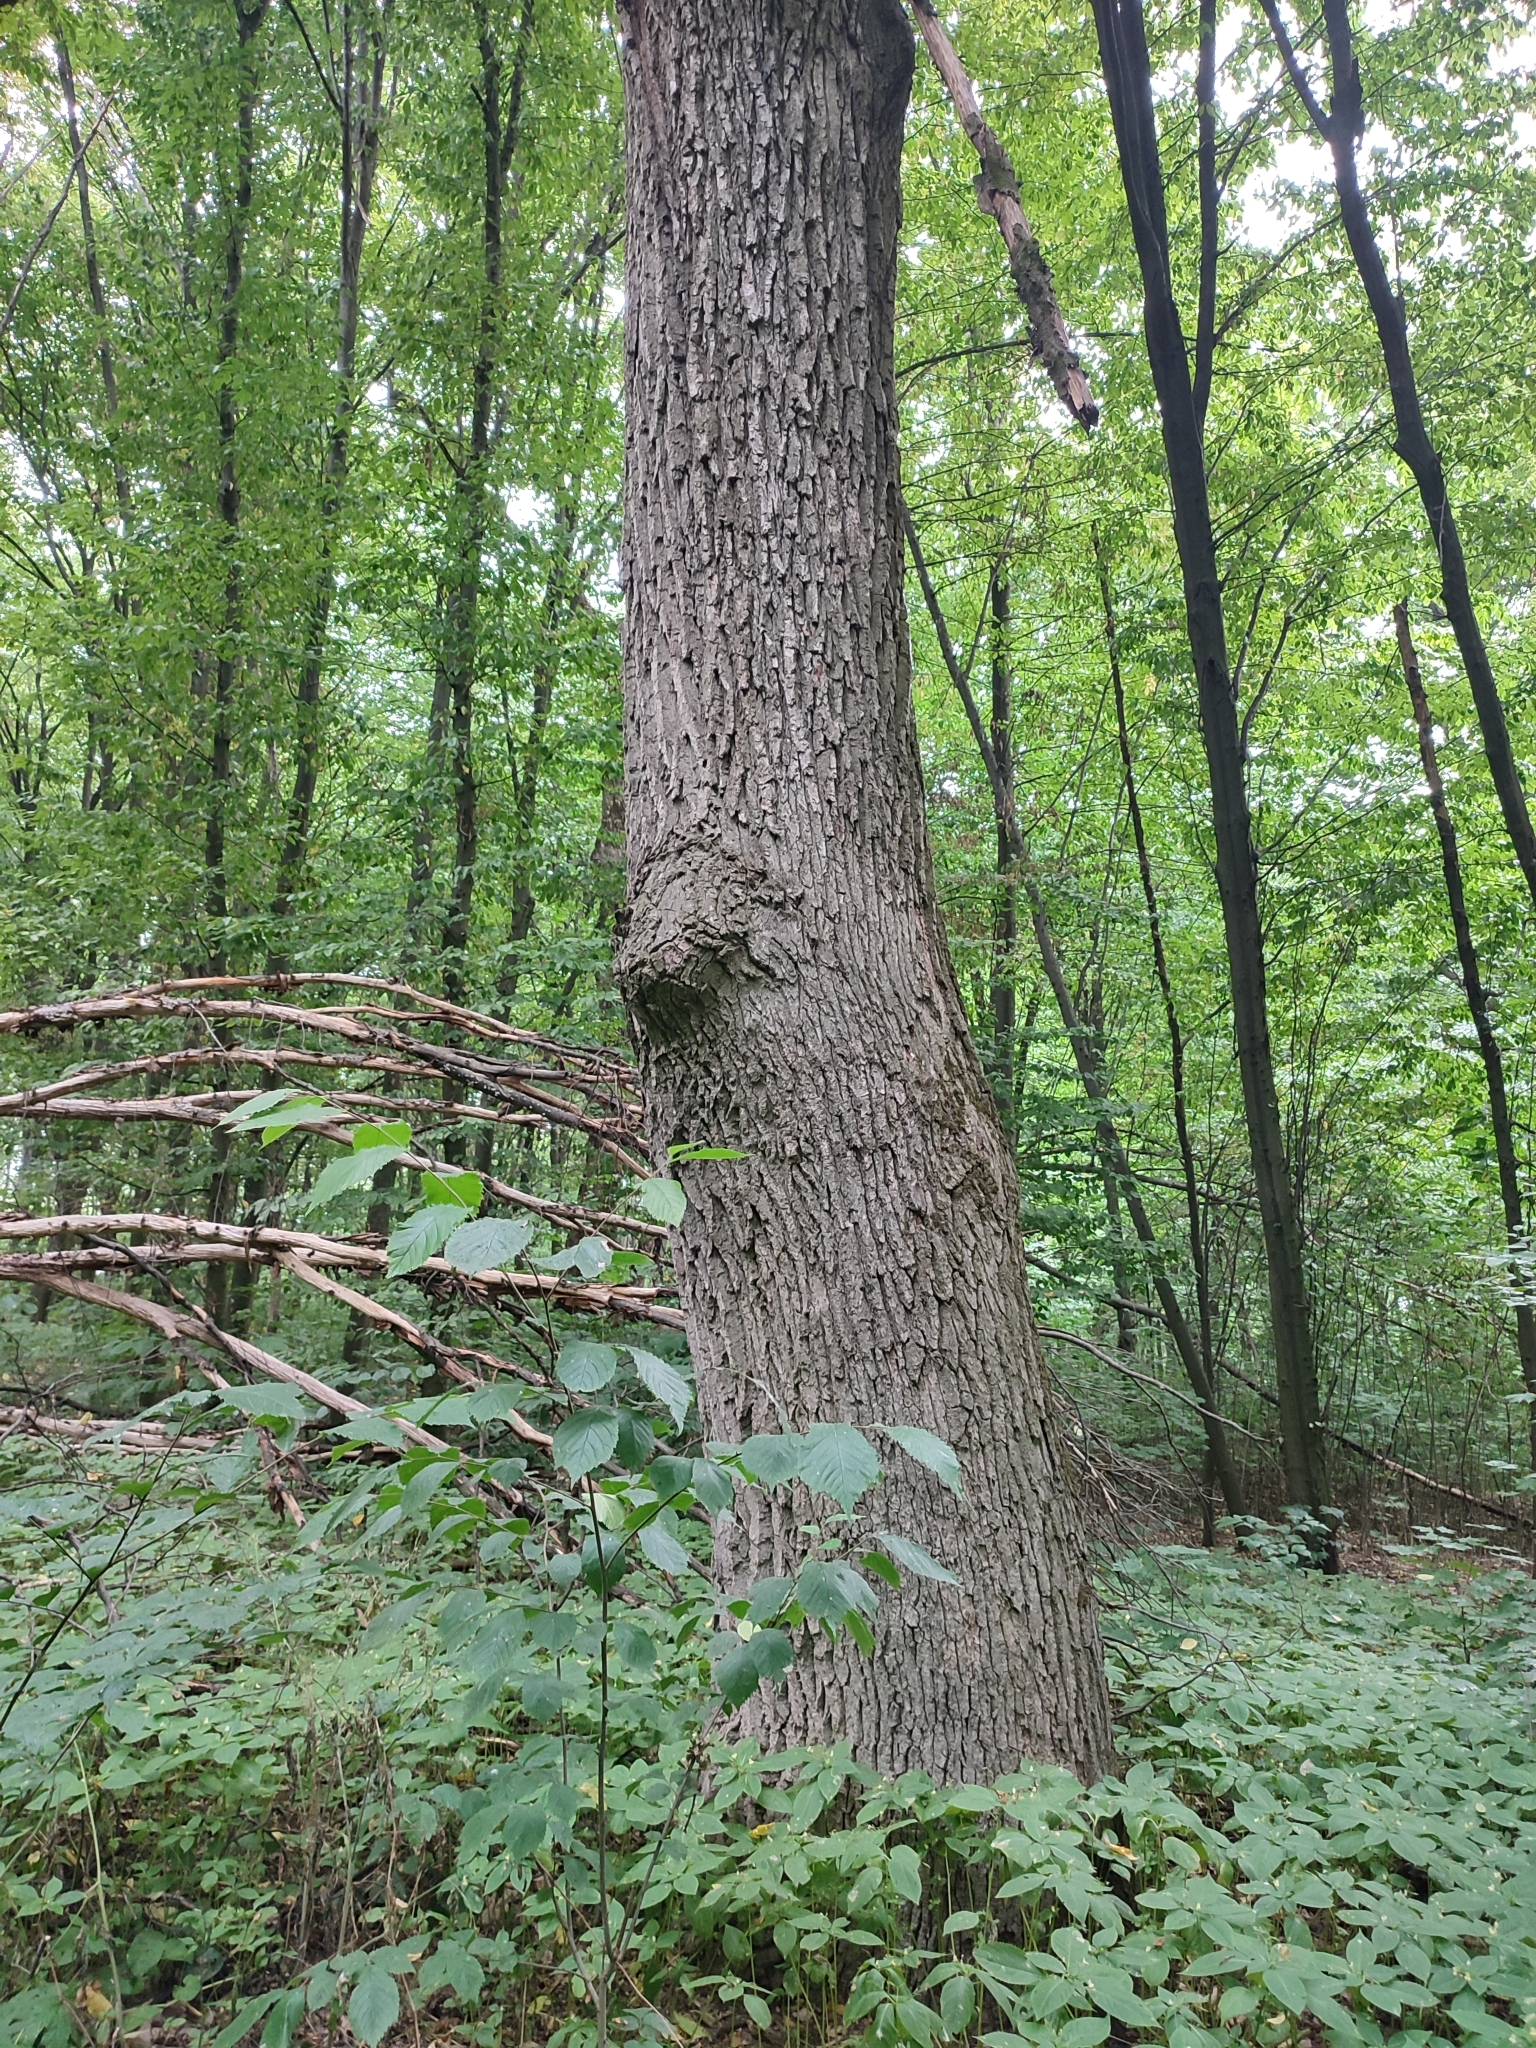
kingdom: Plantae
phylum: Tracheophyta
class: Magnoliopsida
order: Fagales
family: Fagaceae
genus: Quercus
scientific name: Quercus robur
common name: Pedunculate oak
